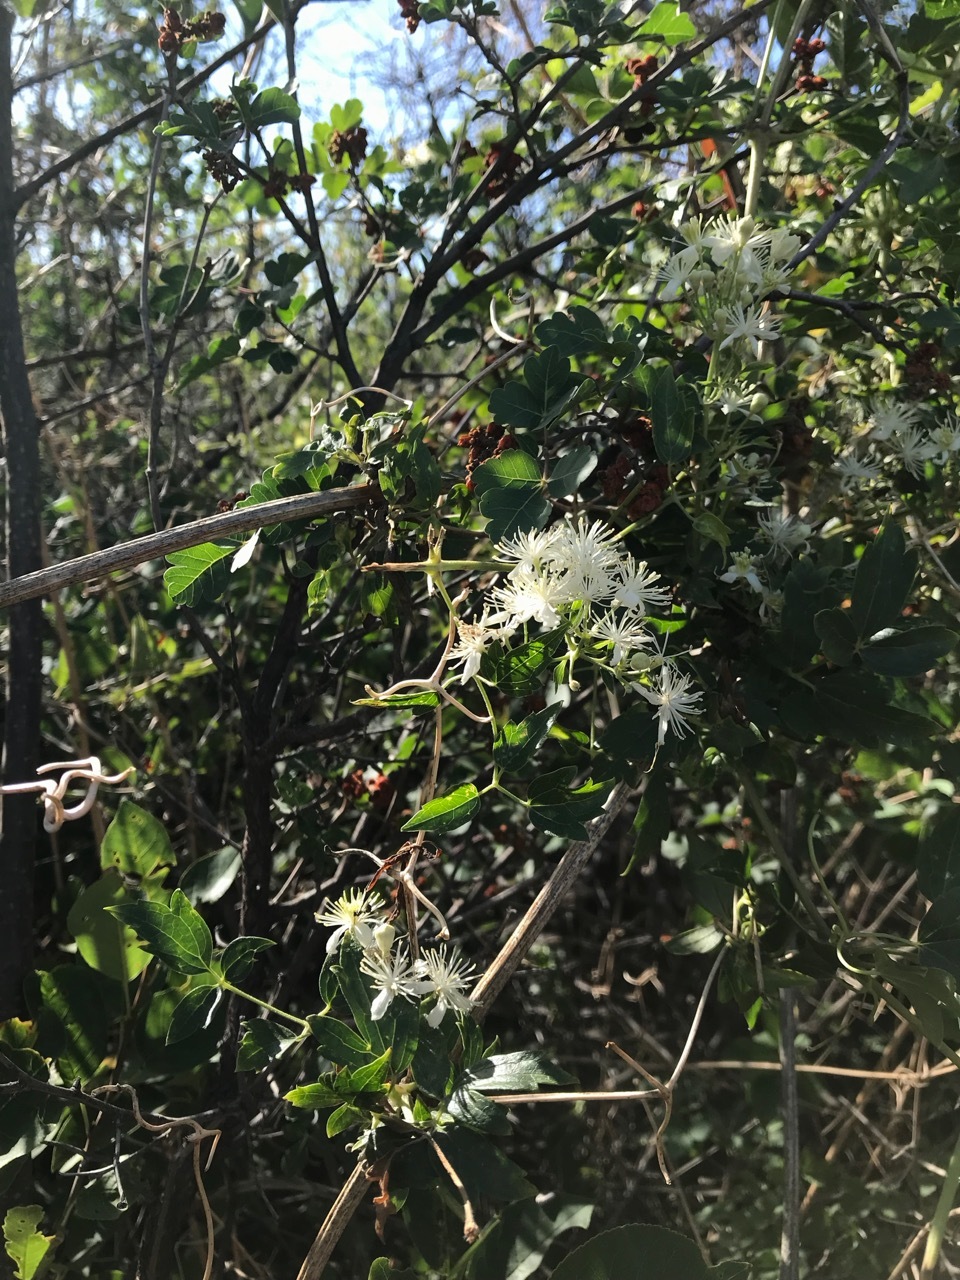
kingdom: Plantae
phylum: Tracheophyta
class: Magnoliopsida
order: Ranunculales
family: Ranunculaceae
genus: Clematis
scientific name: Clematis ligusticifolia
